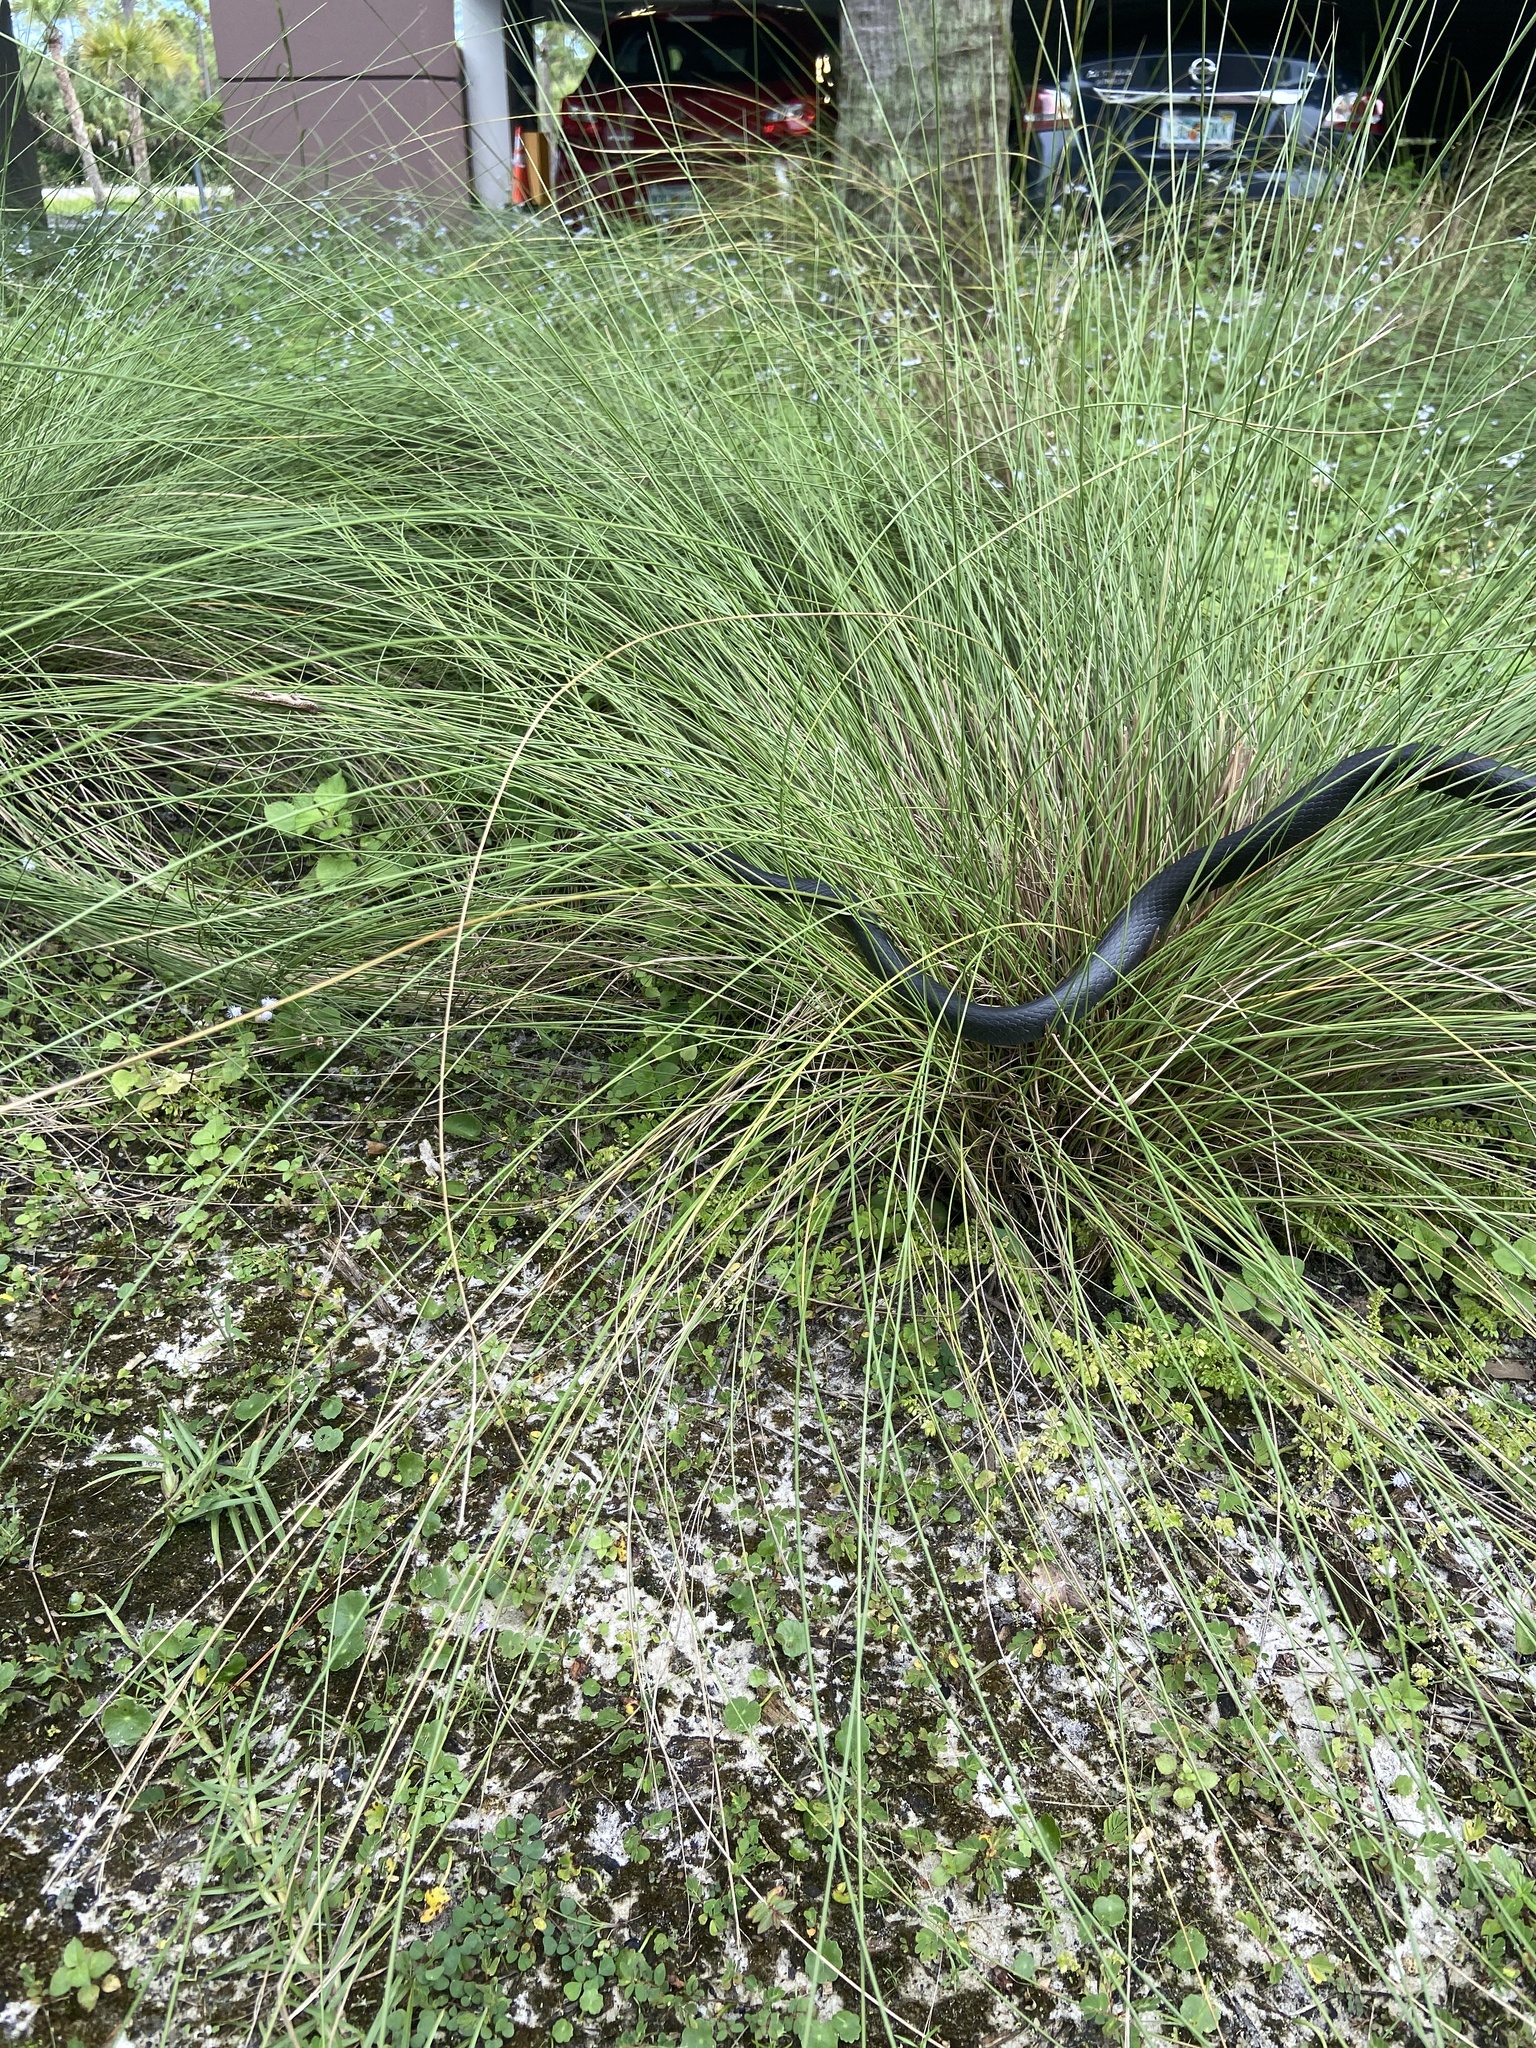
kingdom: Animalia
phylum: Chordata
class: Squamata
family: Colubridae
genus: Coluber
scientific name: Coluber constrictor
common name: Eastern racer
